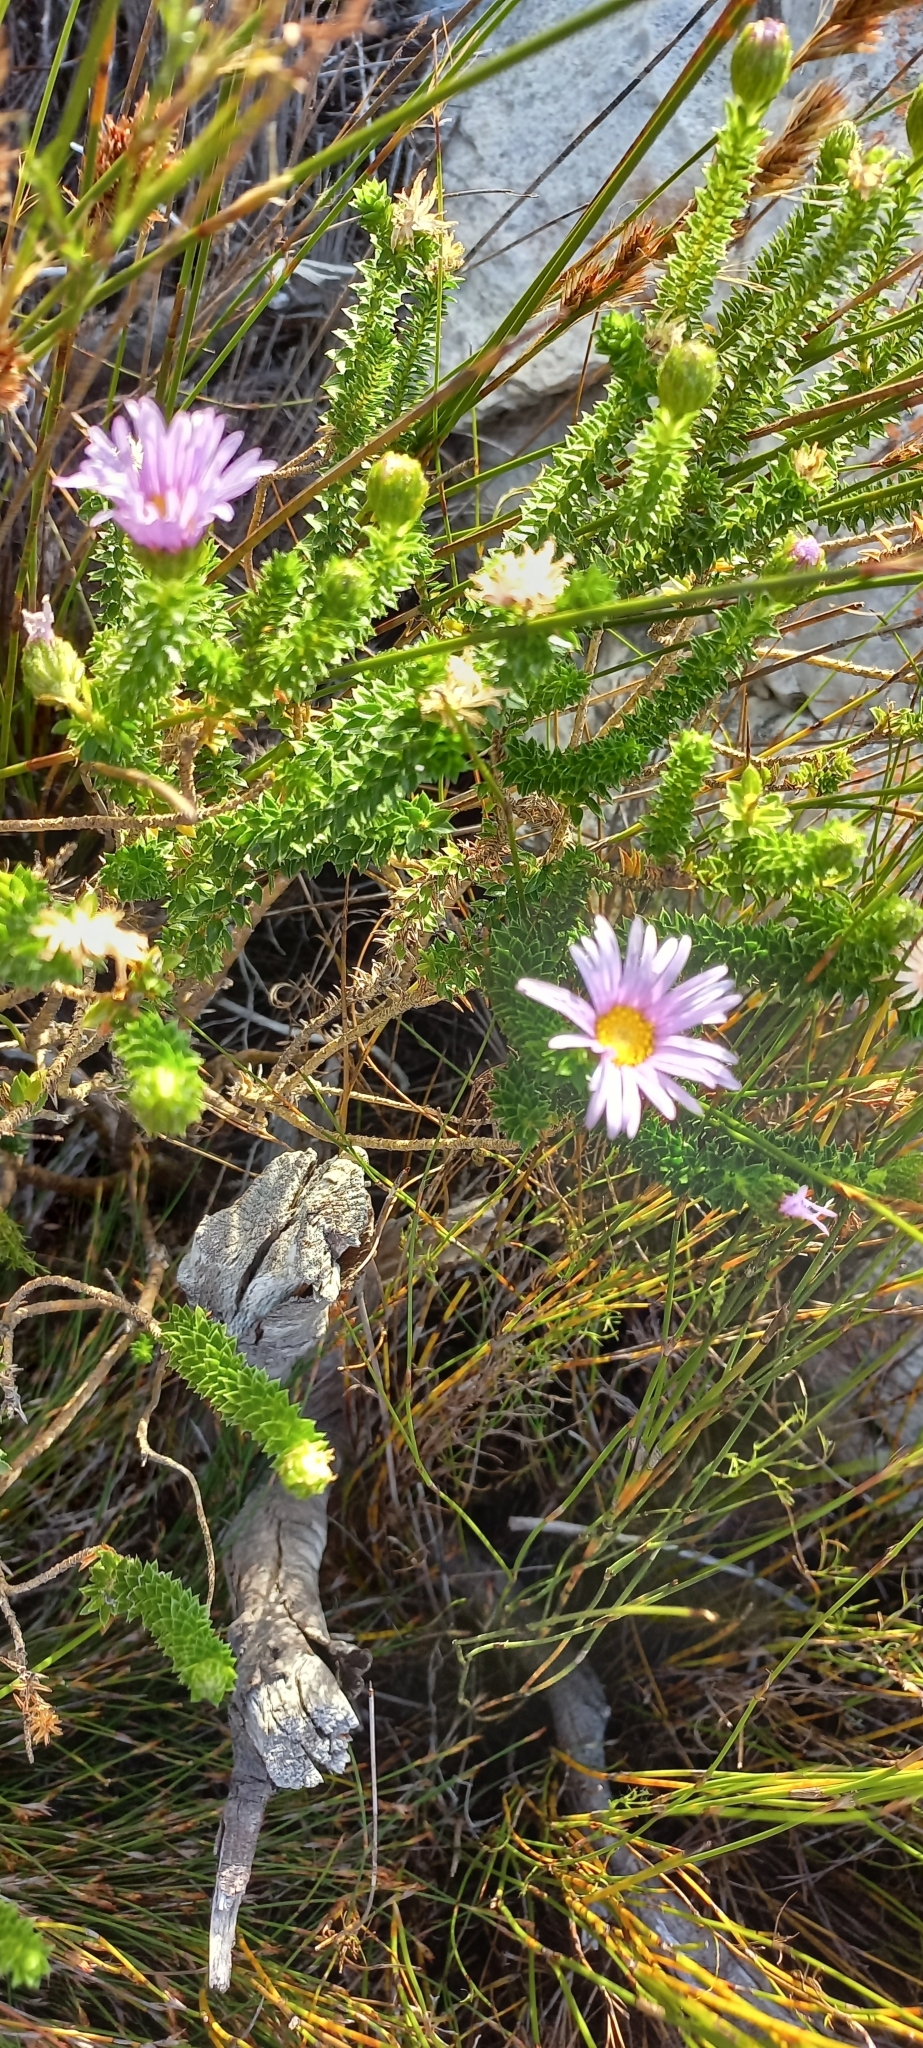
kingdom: Plantae
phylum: Tracheophyta
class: Magnoliopsida
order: Asterales
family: Asteraceae
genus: Felicia
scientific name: Felicia echinata
